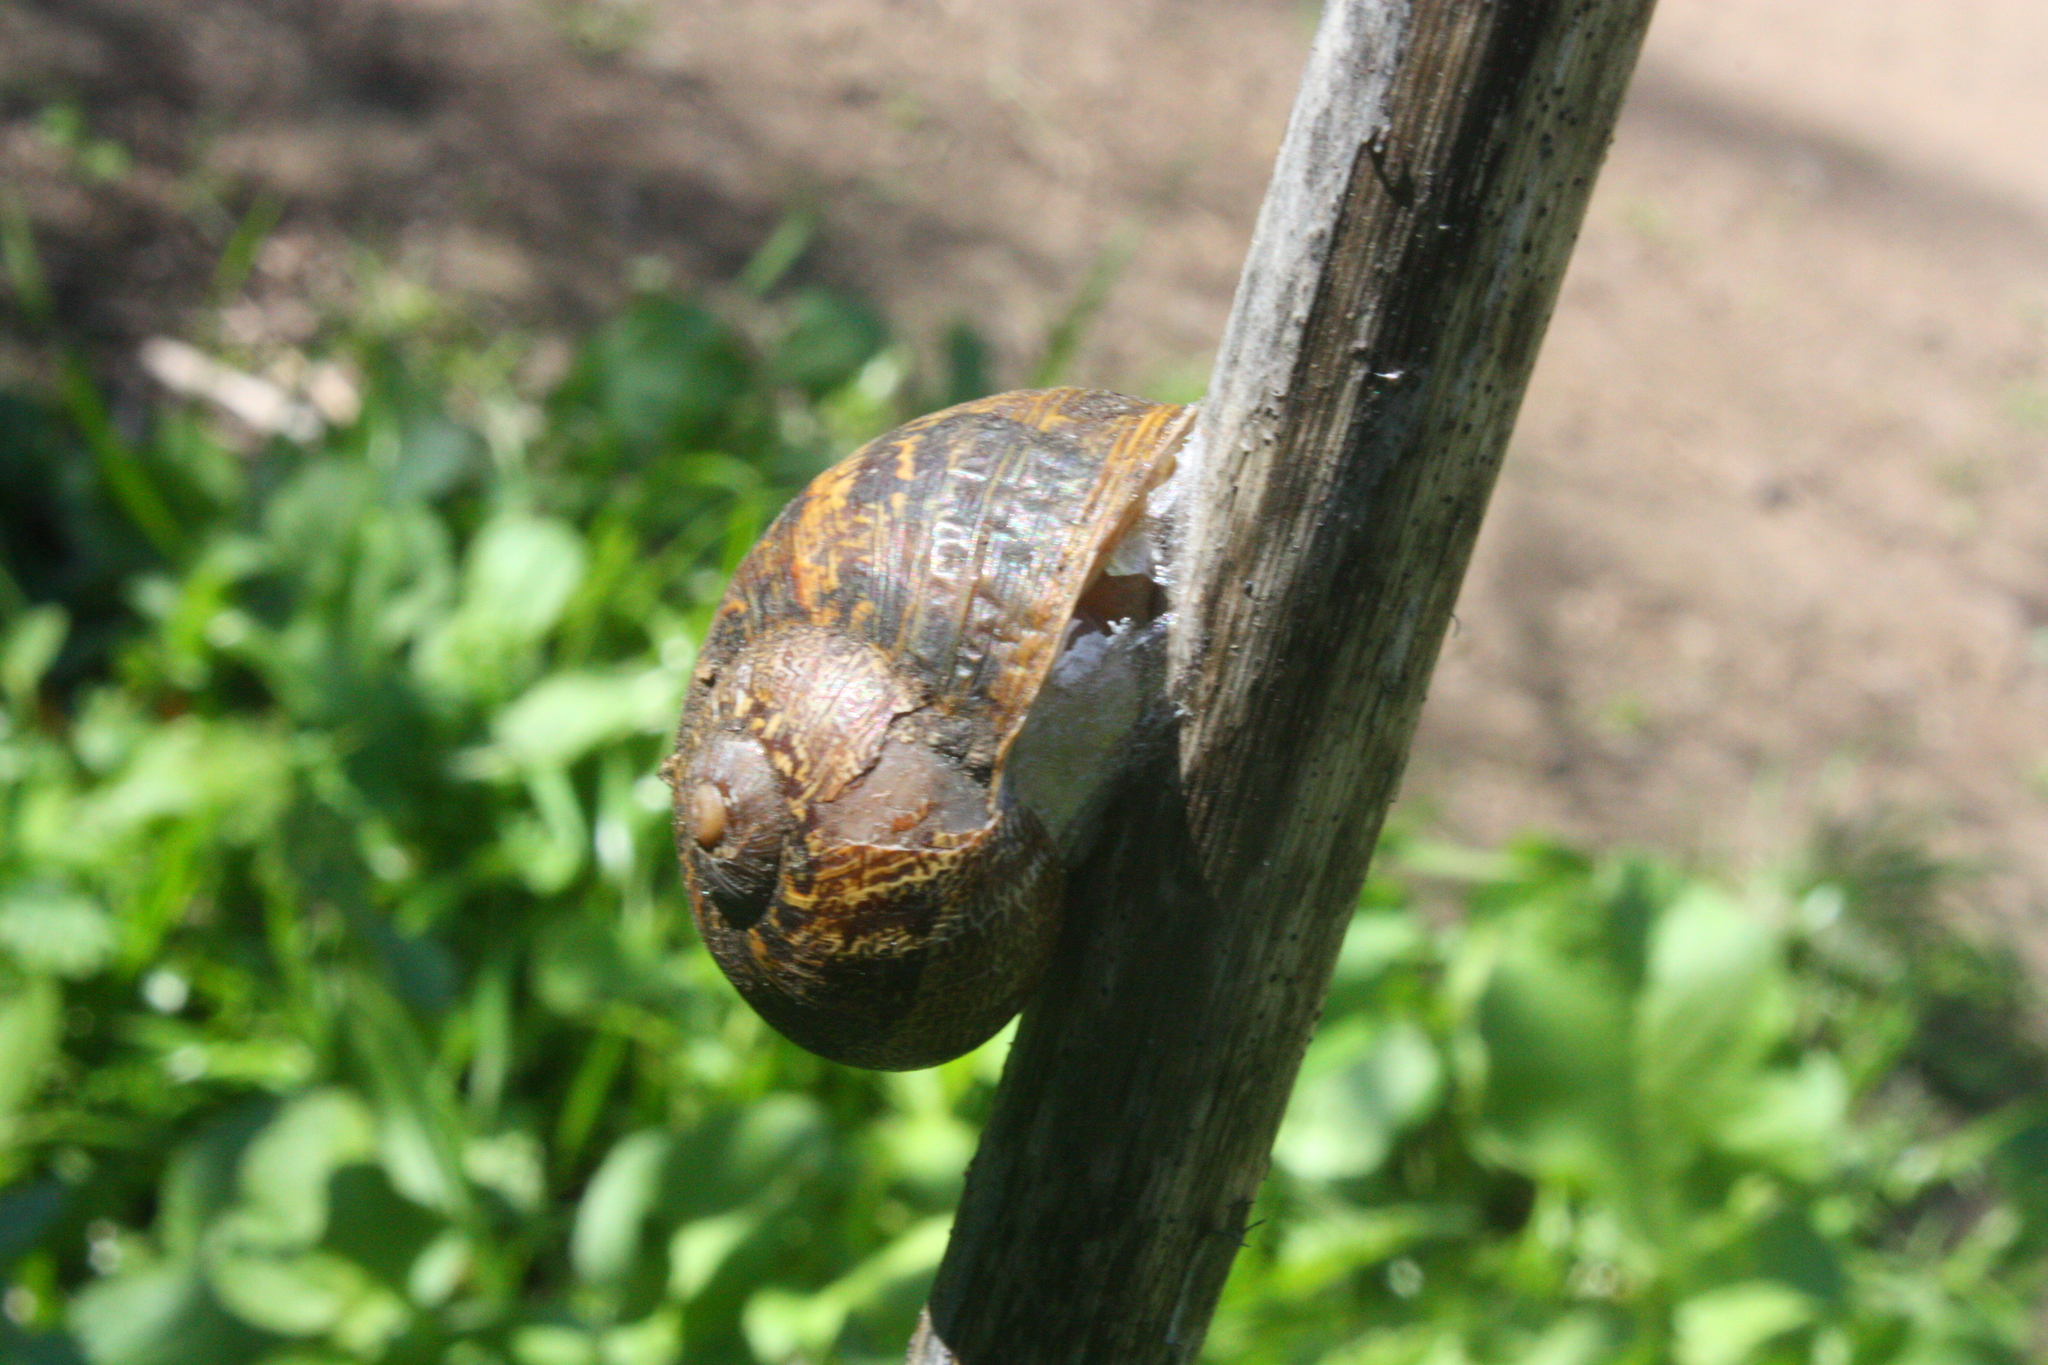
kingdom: Animalia
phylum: Mollusca
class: Gastropoda
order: Stylommatophora
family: Helicidae
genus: Cornu
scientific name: Cornu aspersum
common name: Brown garden snail
